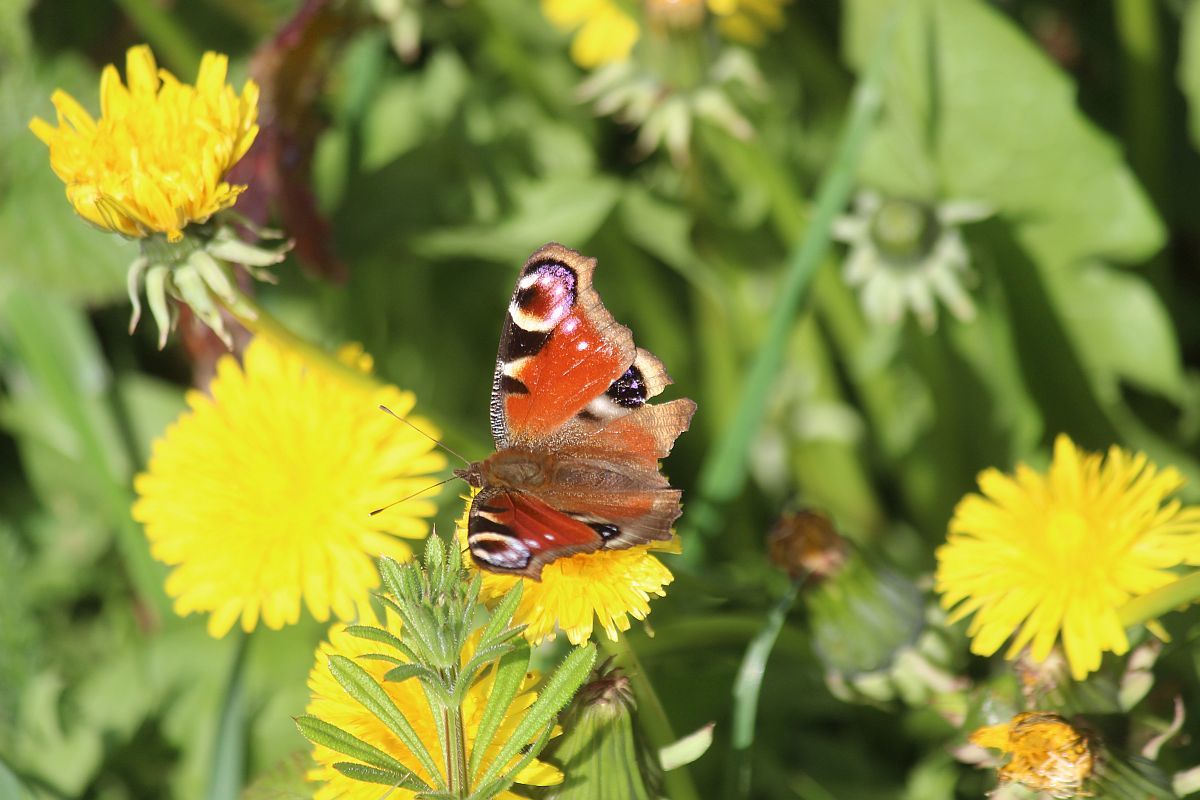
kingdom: Animalia
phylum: Arthropoda
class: Insecta
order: Lepidoptera
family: Nymphalidae
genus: Aglais
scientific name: Aglais io
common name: Peacock
